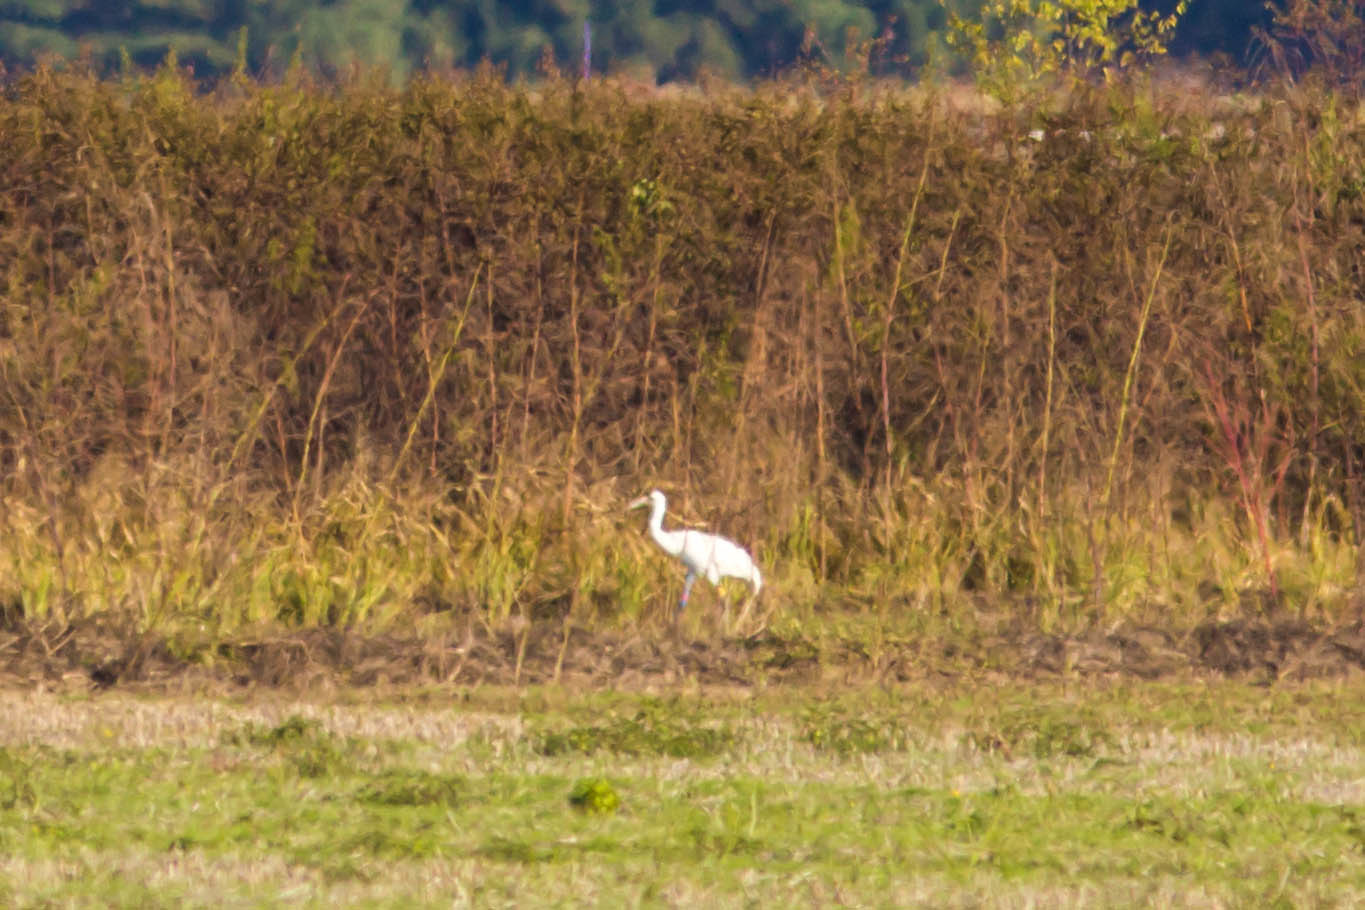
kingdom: Animalia
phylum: Chordata
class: Aves
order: Gruiformes
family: Gruidae
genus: Grus
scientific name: Grus americana
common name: Whooping crane
